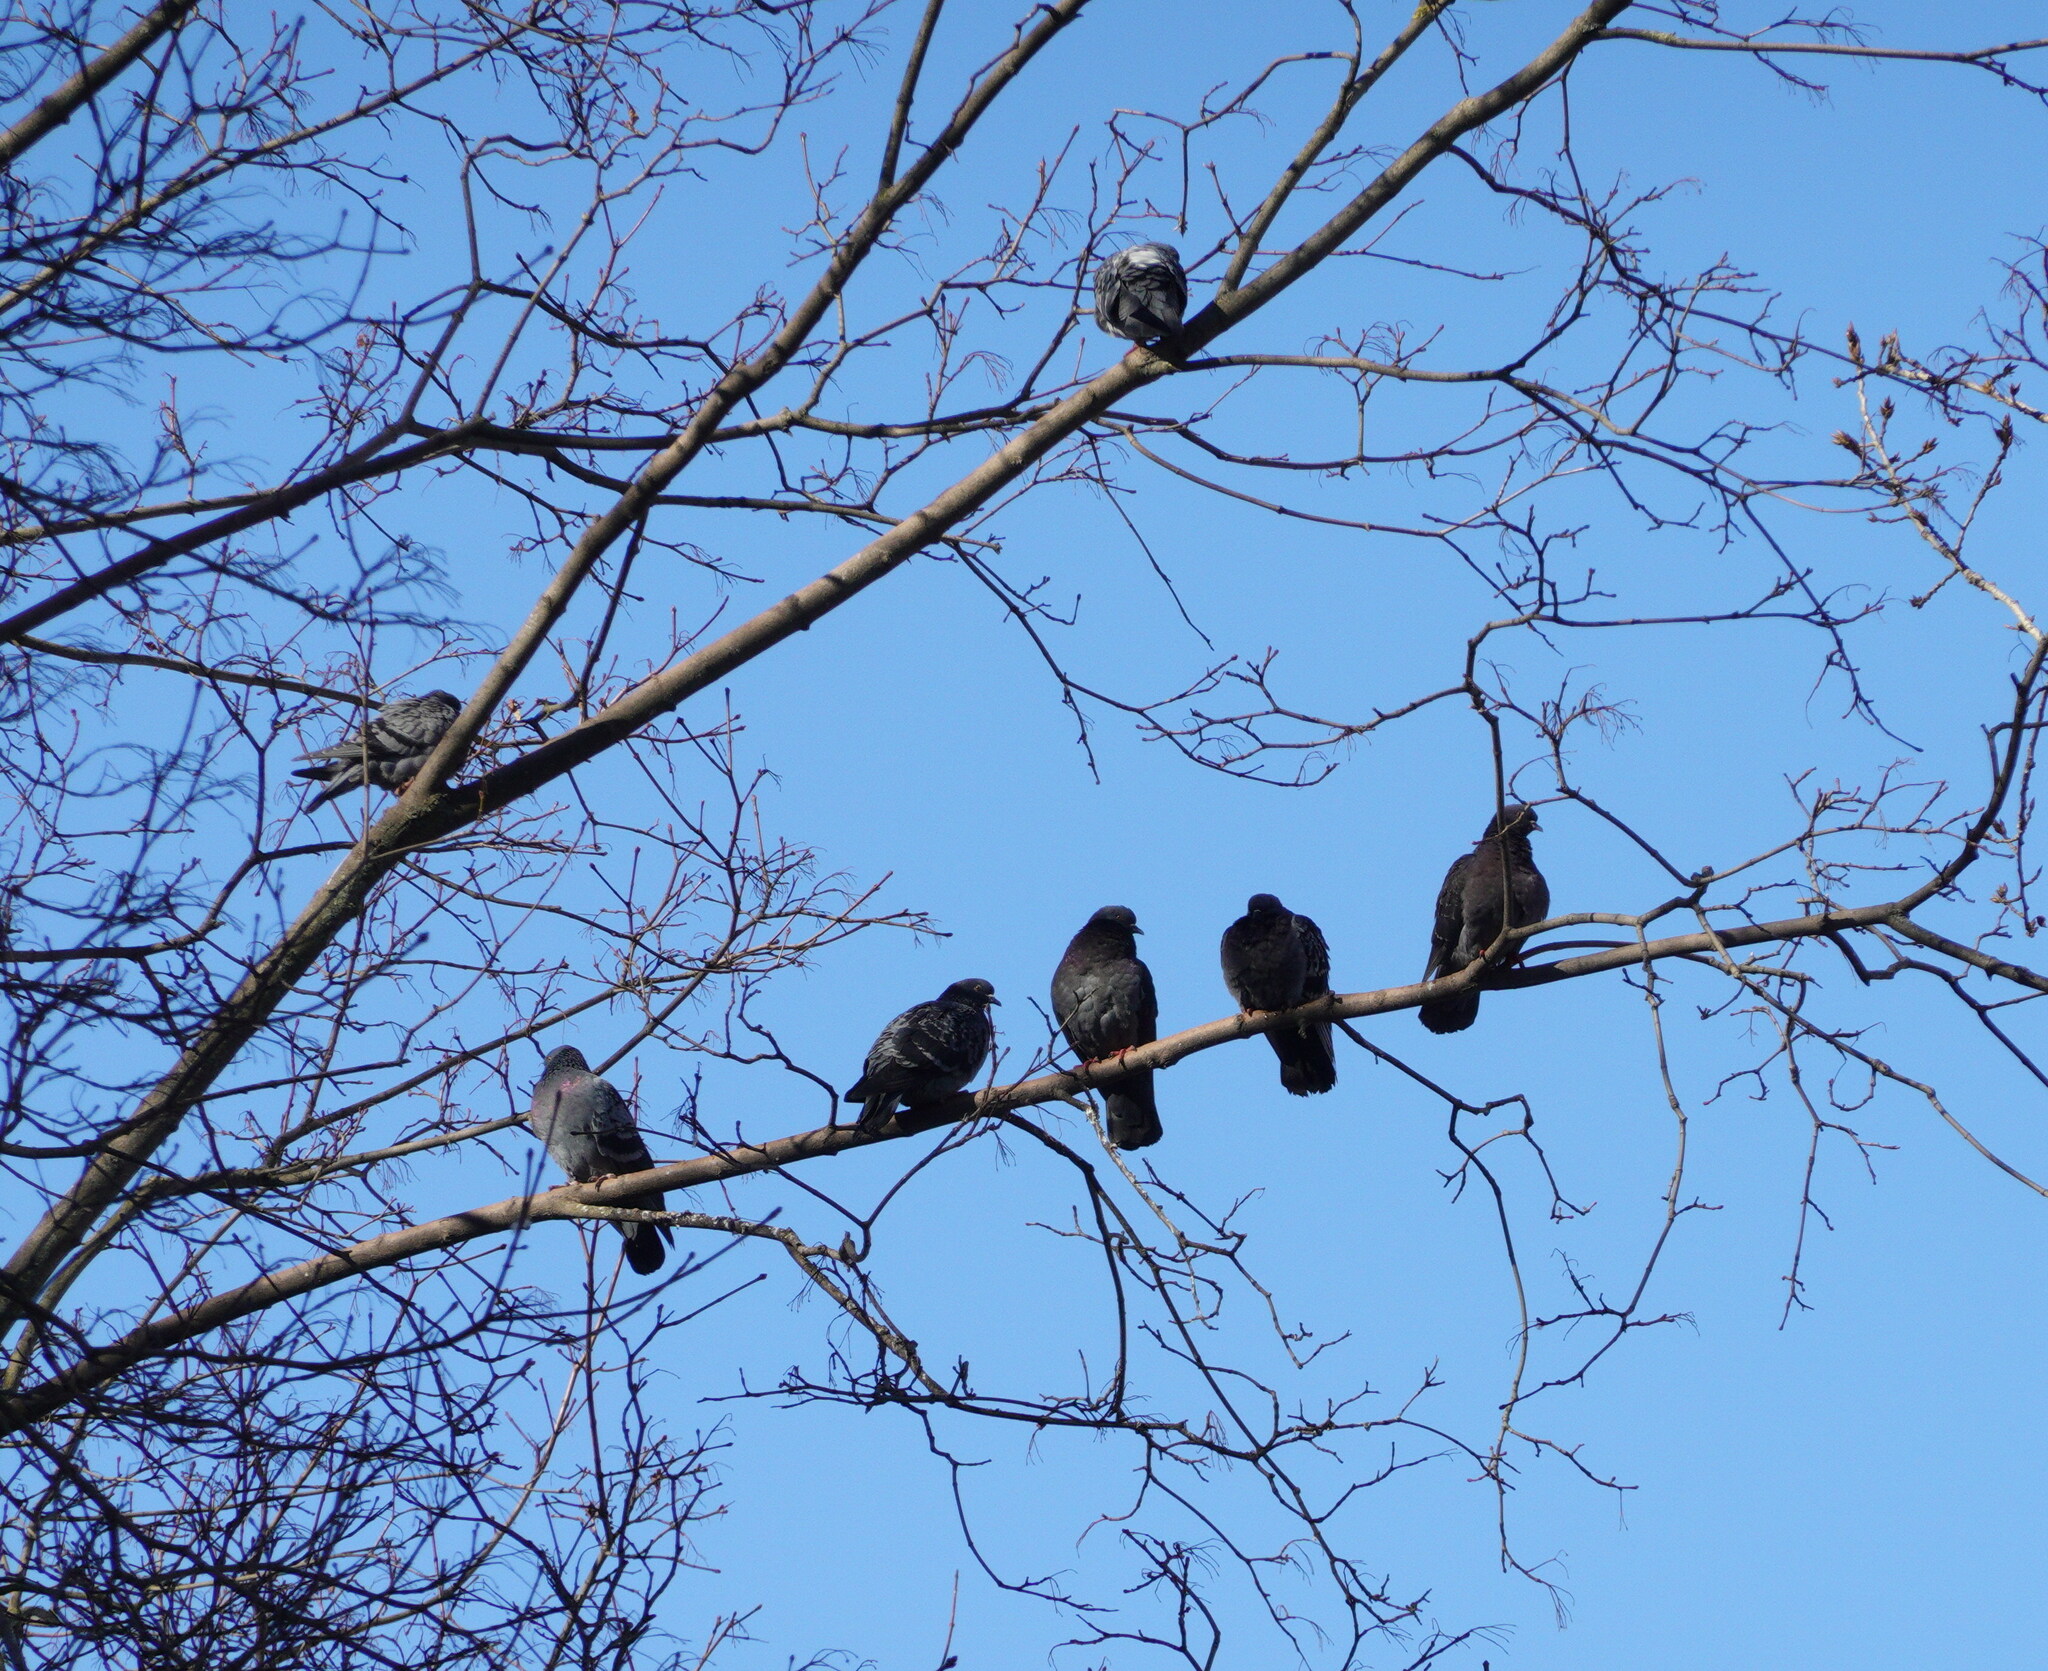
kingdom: Animalia
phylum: Chordata
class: Aves
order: Columbiformes
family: Columbidae
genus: Columba
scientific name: Columba livia
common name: Rock pigeon
